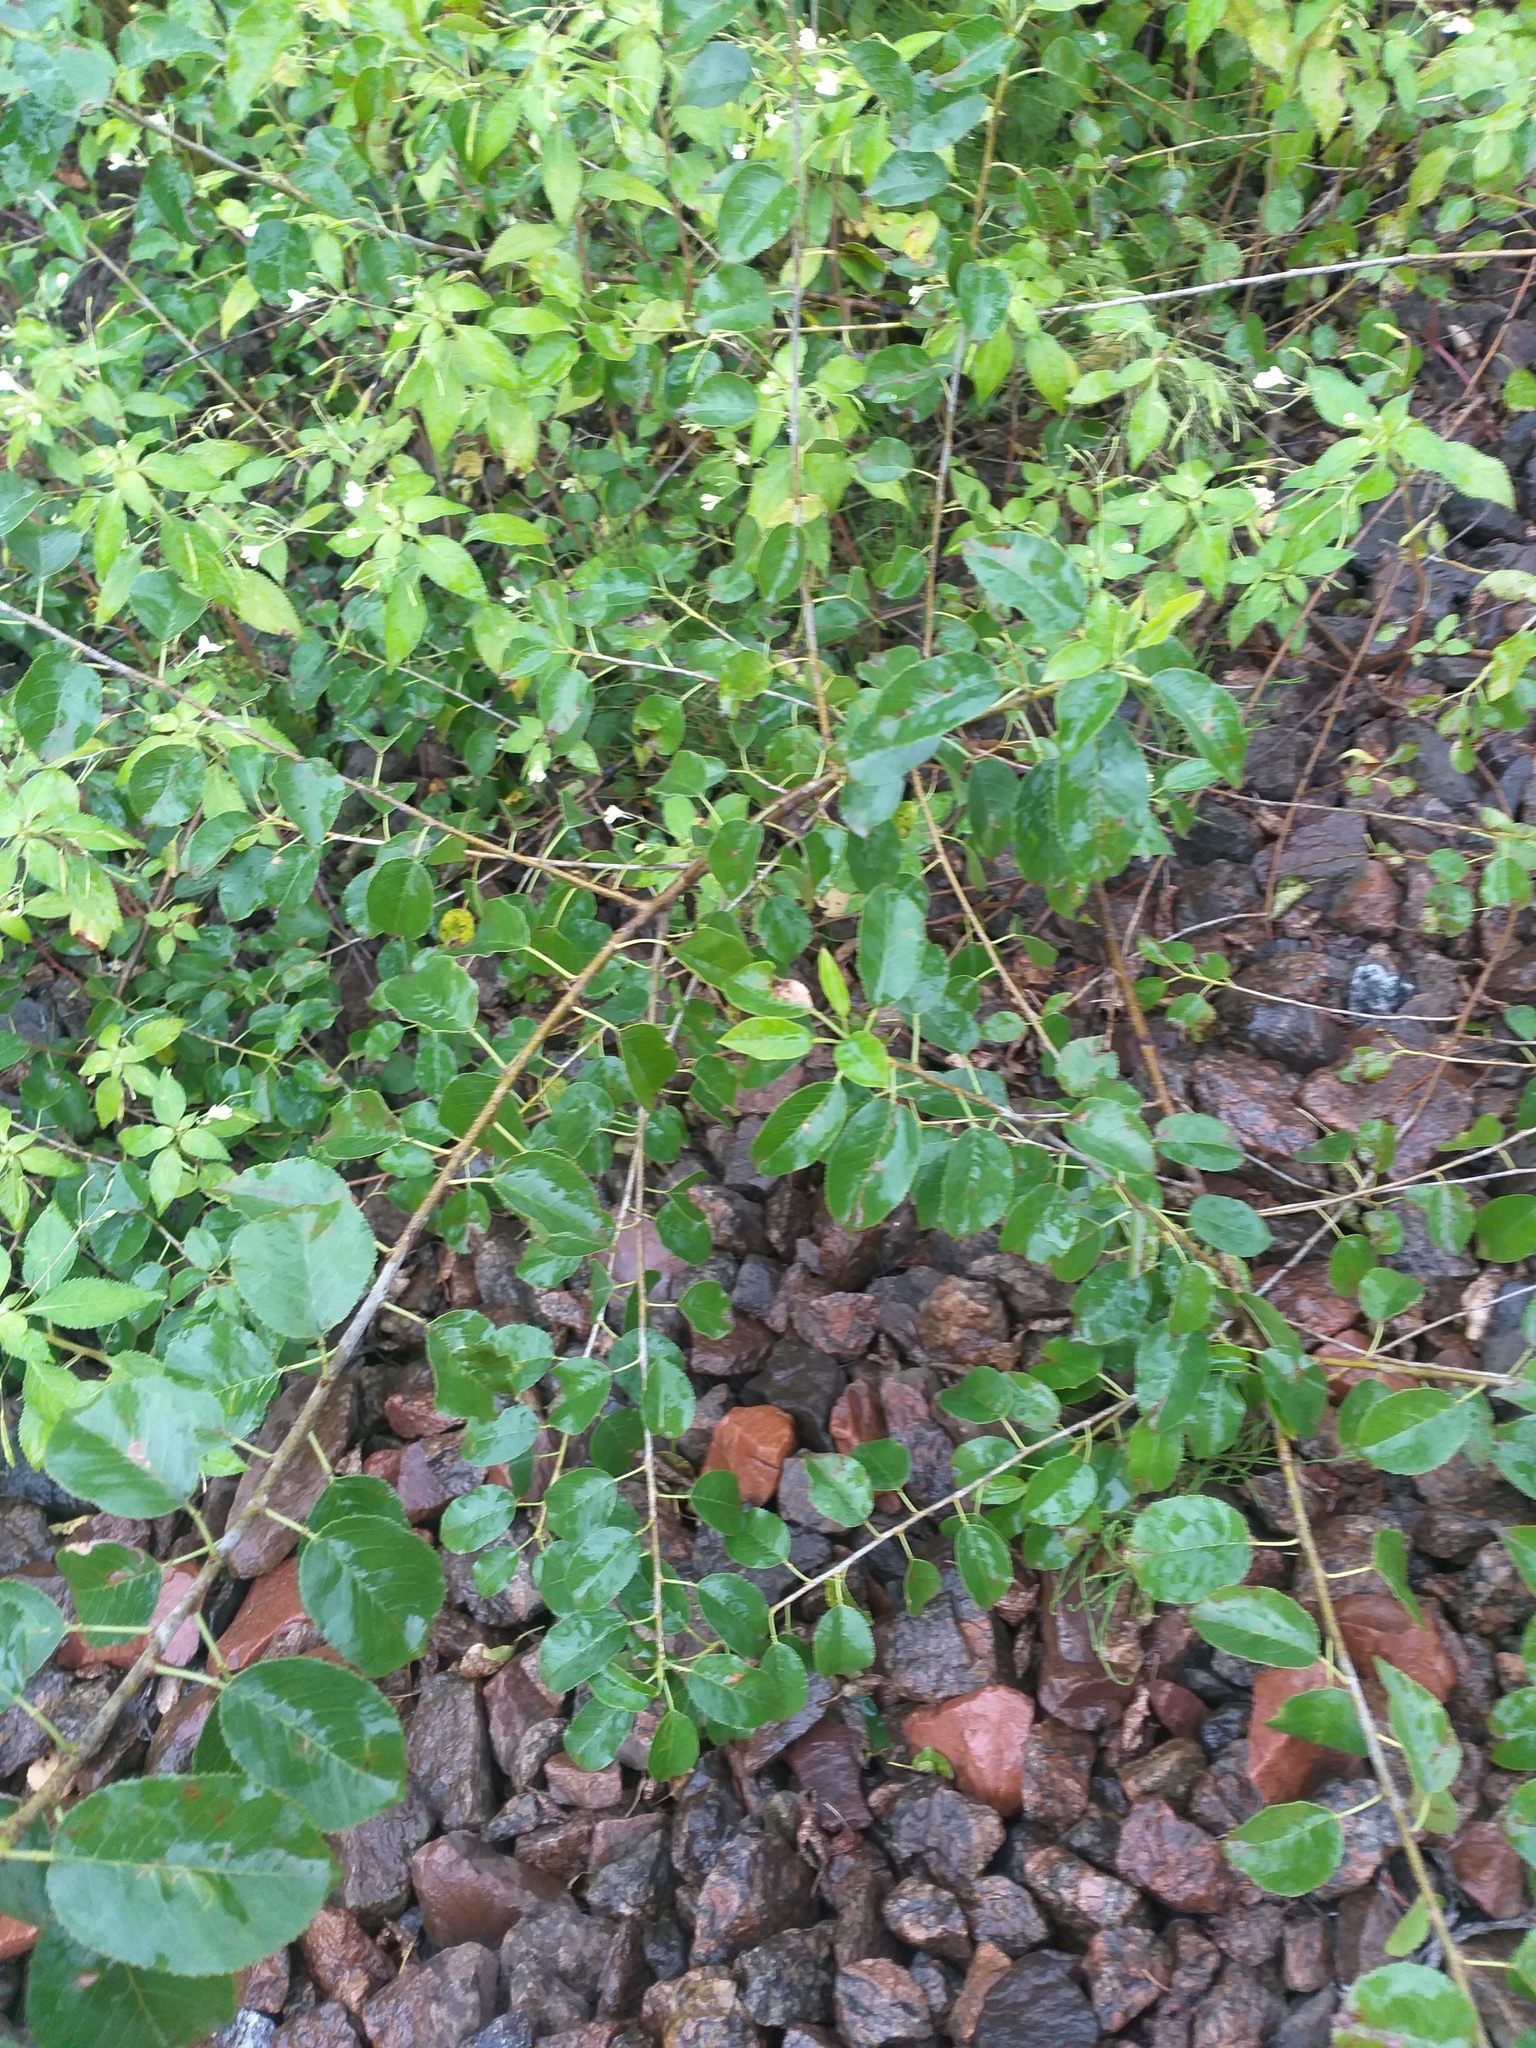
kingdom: Plantae
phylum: Tracheophyta
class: Magnoliopsida
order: Rosales
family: Rosaceae
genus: Prunus
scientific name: Prunus mahaleb
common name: Mahaleb cherry
